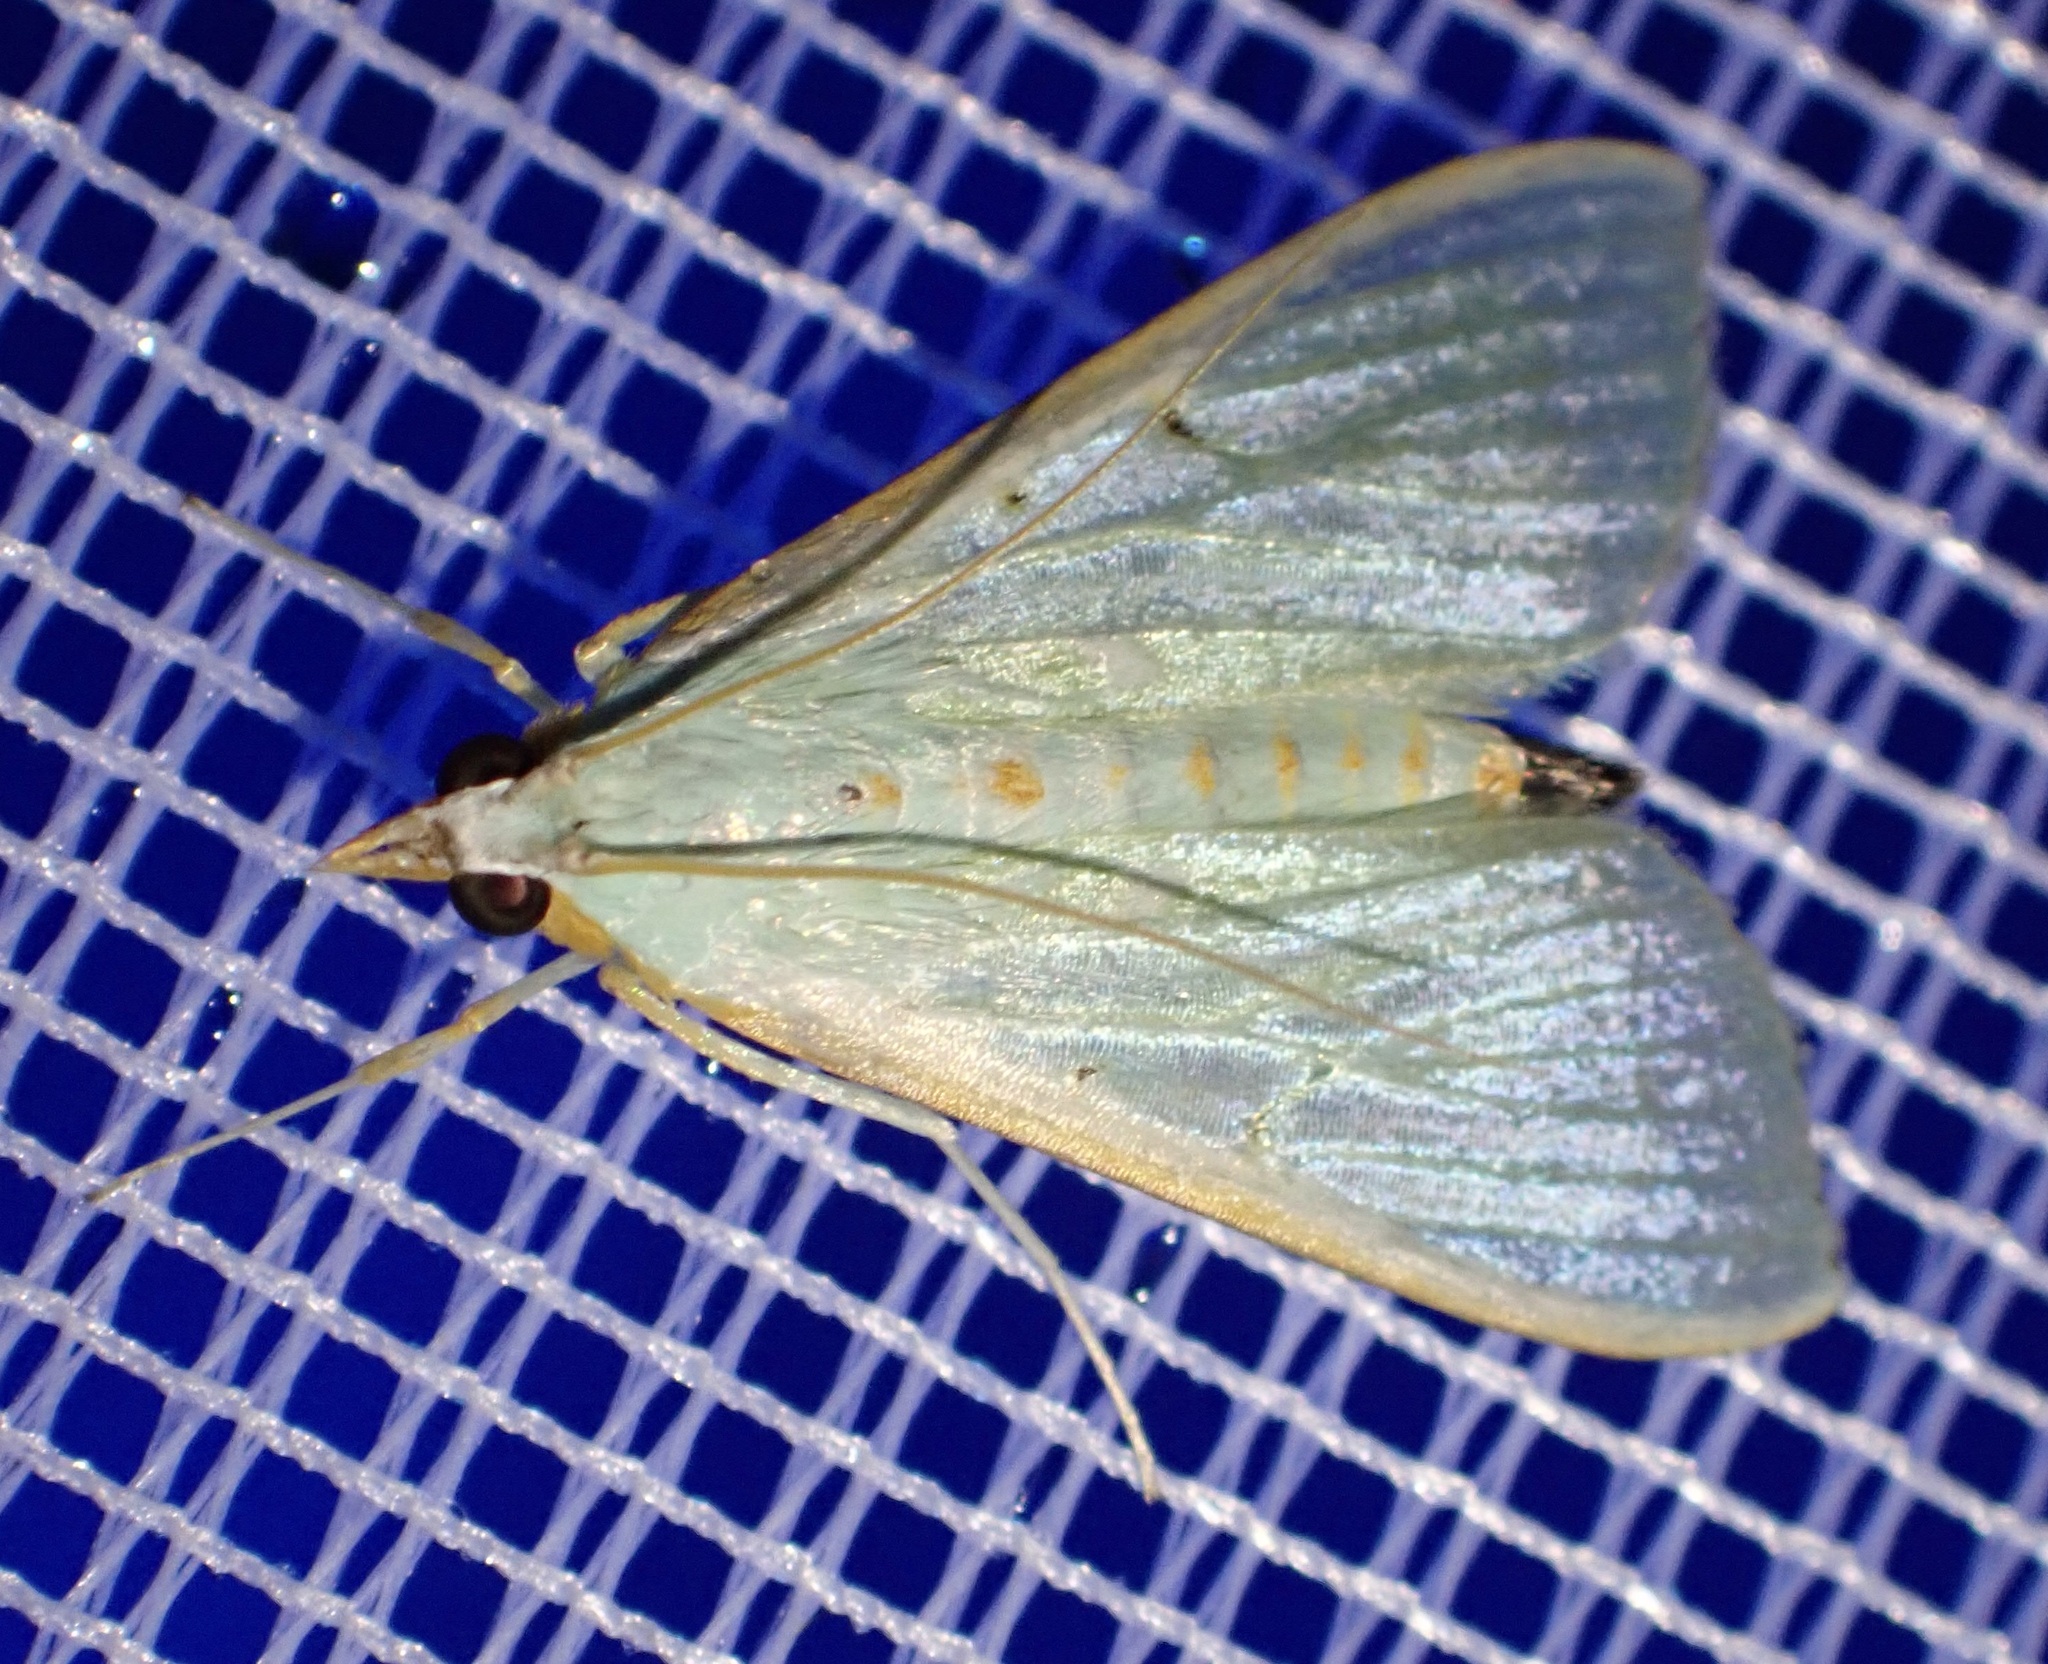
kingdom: Animalia
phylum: Arthropoda
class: Insecta
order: Lepidoptera
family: Crambidae
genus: Arthroschista
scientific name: Arthroschista hilaralis
